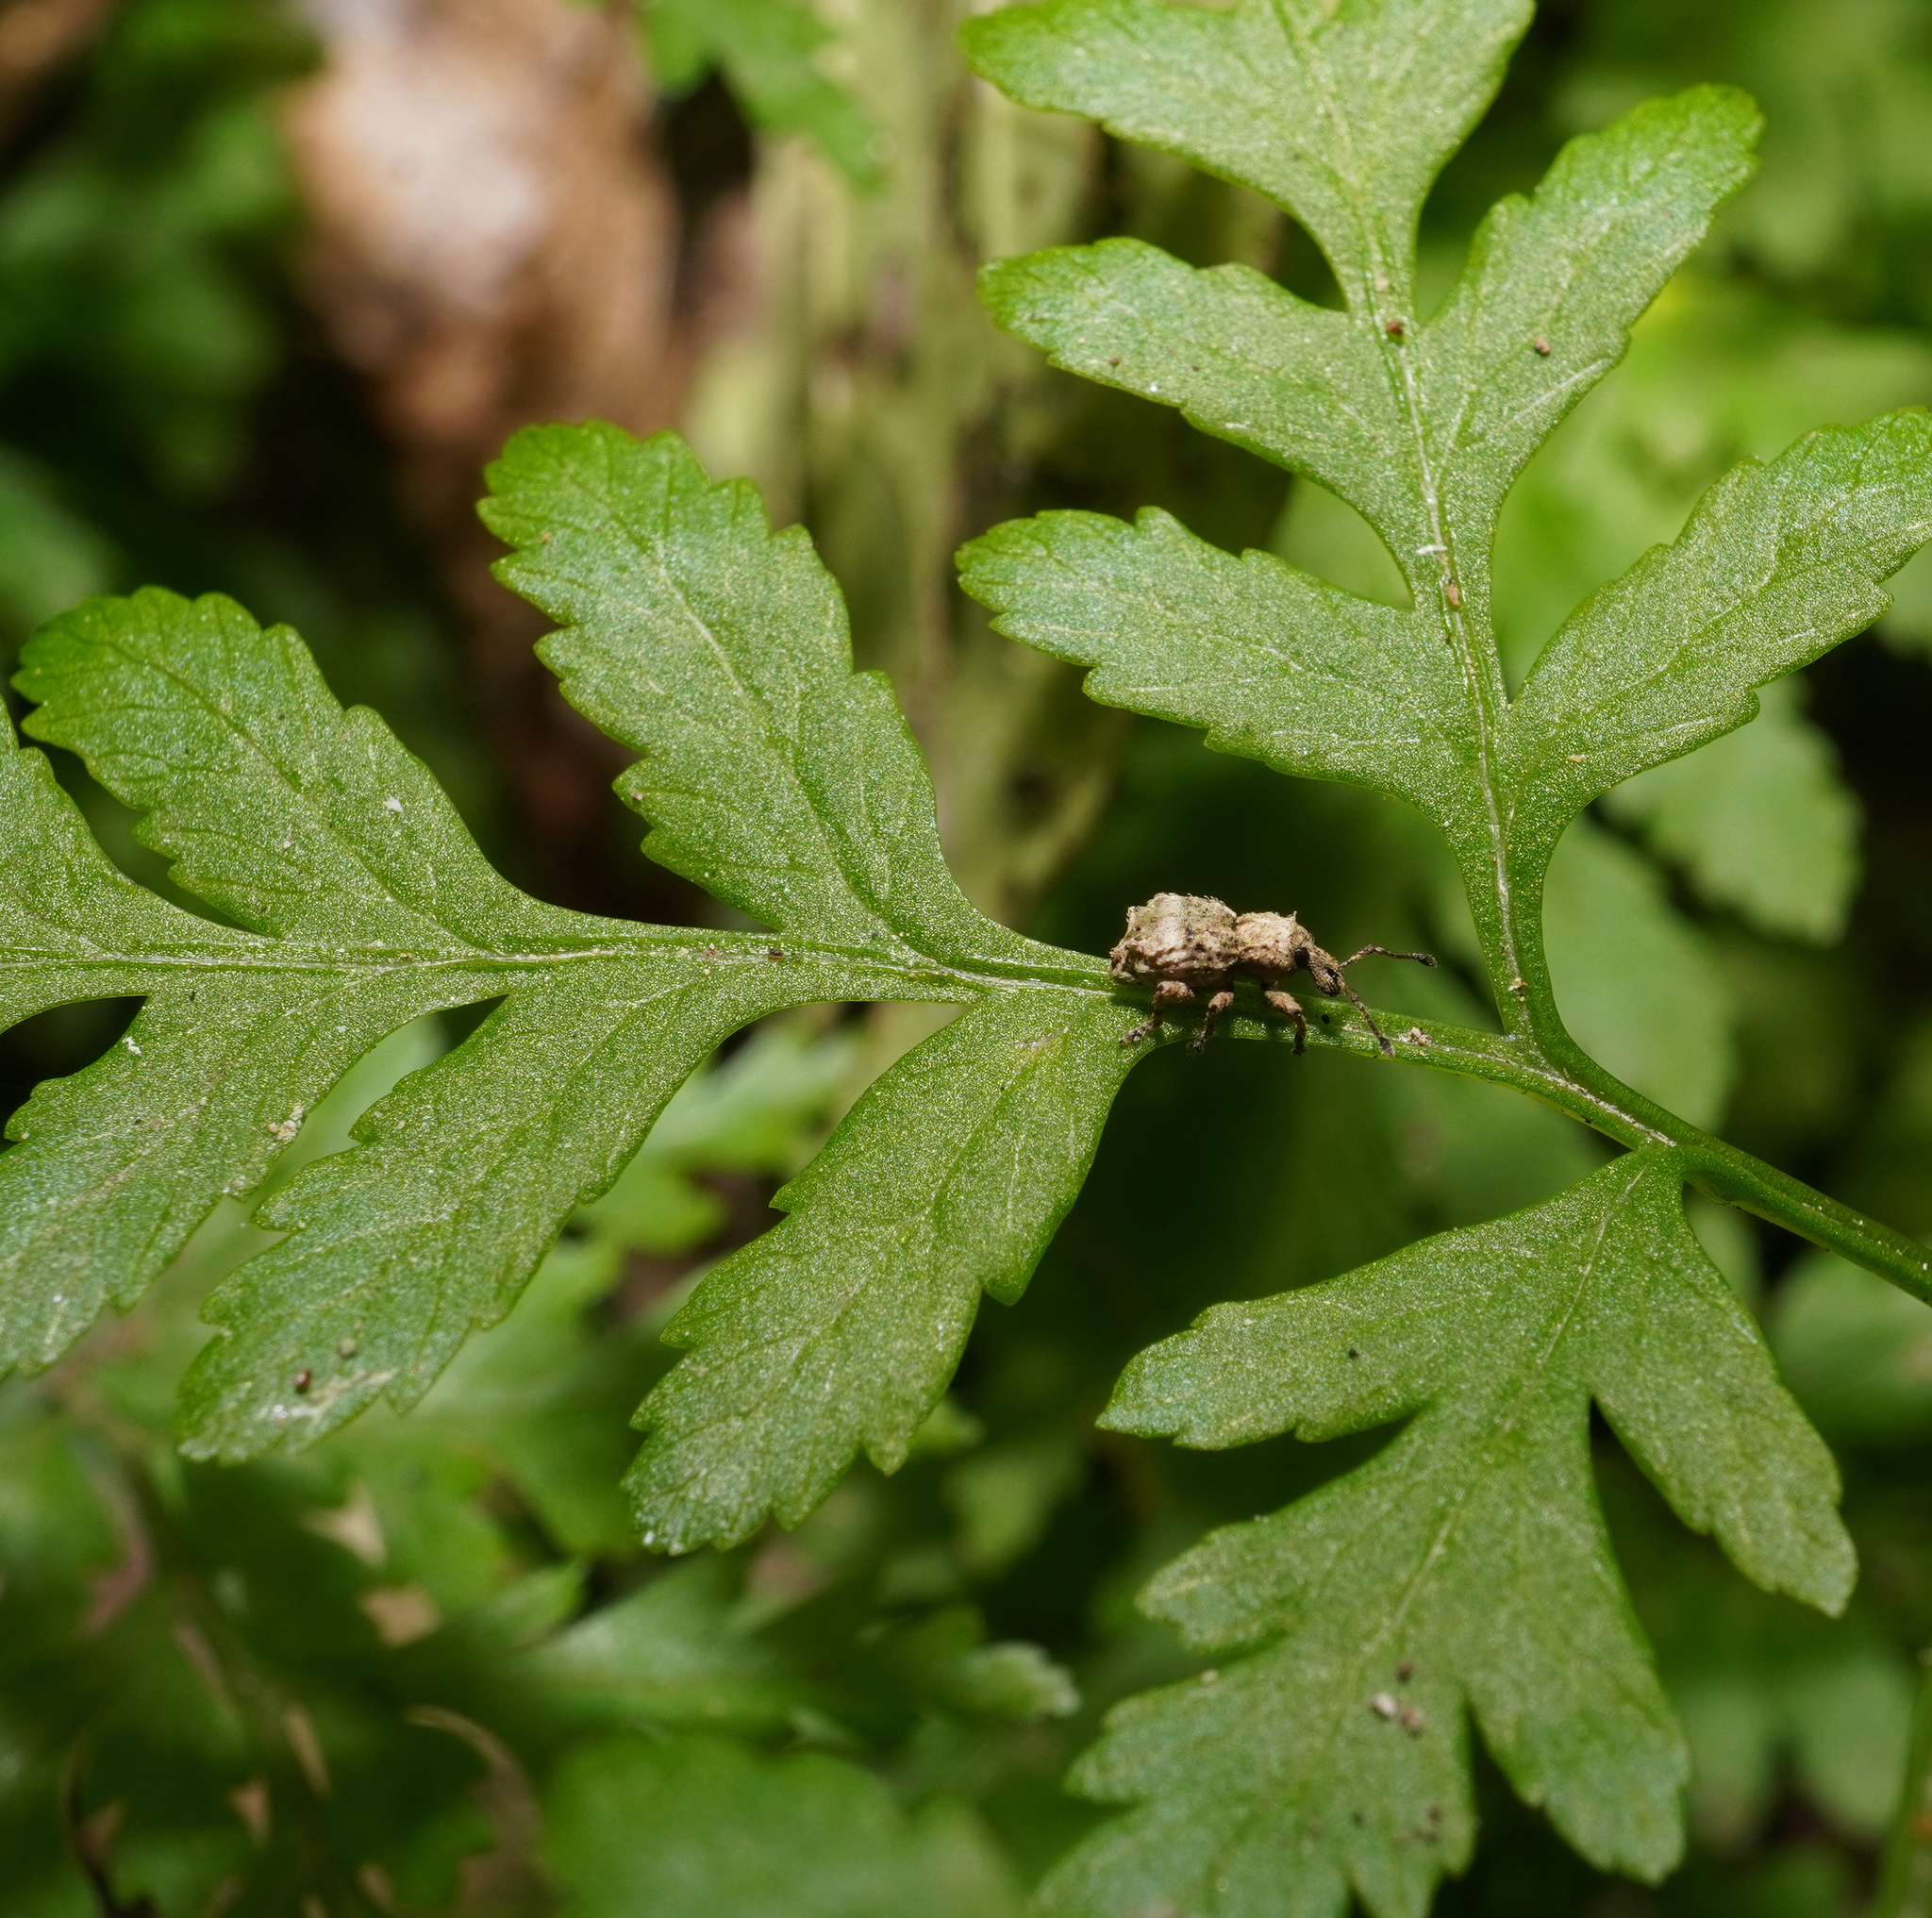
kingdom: Animalia
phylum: Arthropoda
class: Insecta
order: Coleoptera
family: Curculionidae
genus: Brachyolus
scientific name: Brachyolus punctatus
